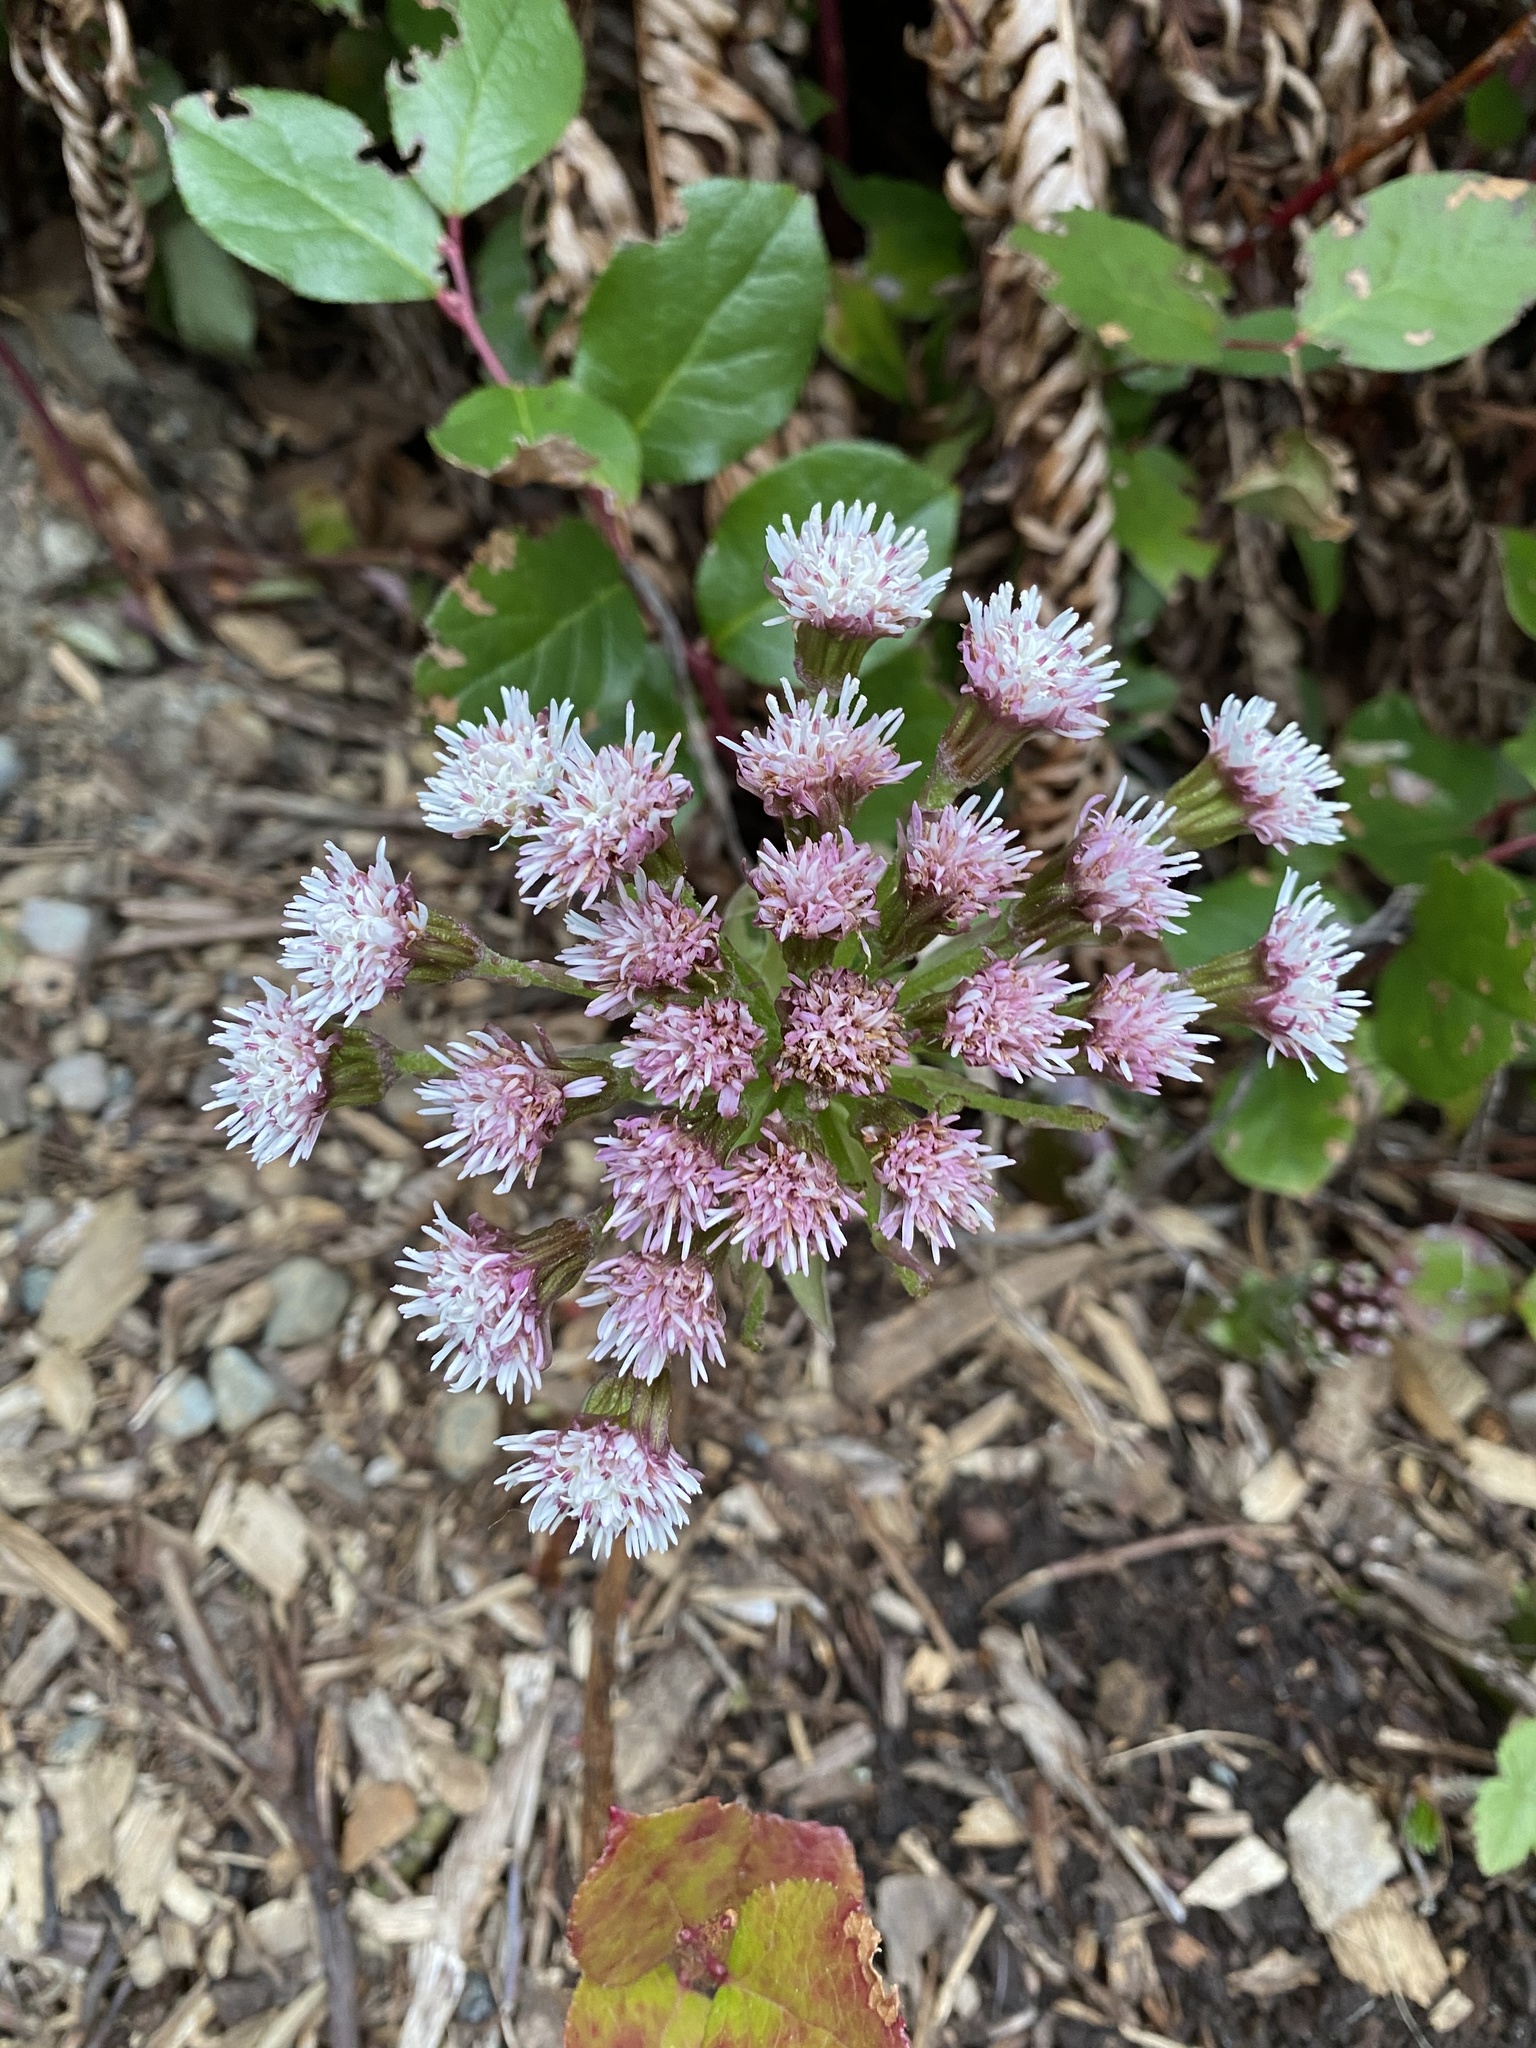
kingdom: Plantae
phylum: Tracheophyta
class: Magnoliopsida
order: Asterales
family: Asteraceae
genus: Petasites
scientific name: Petasites frigidus
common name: Arctic butterbur
